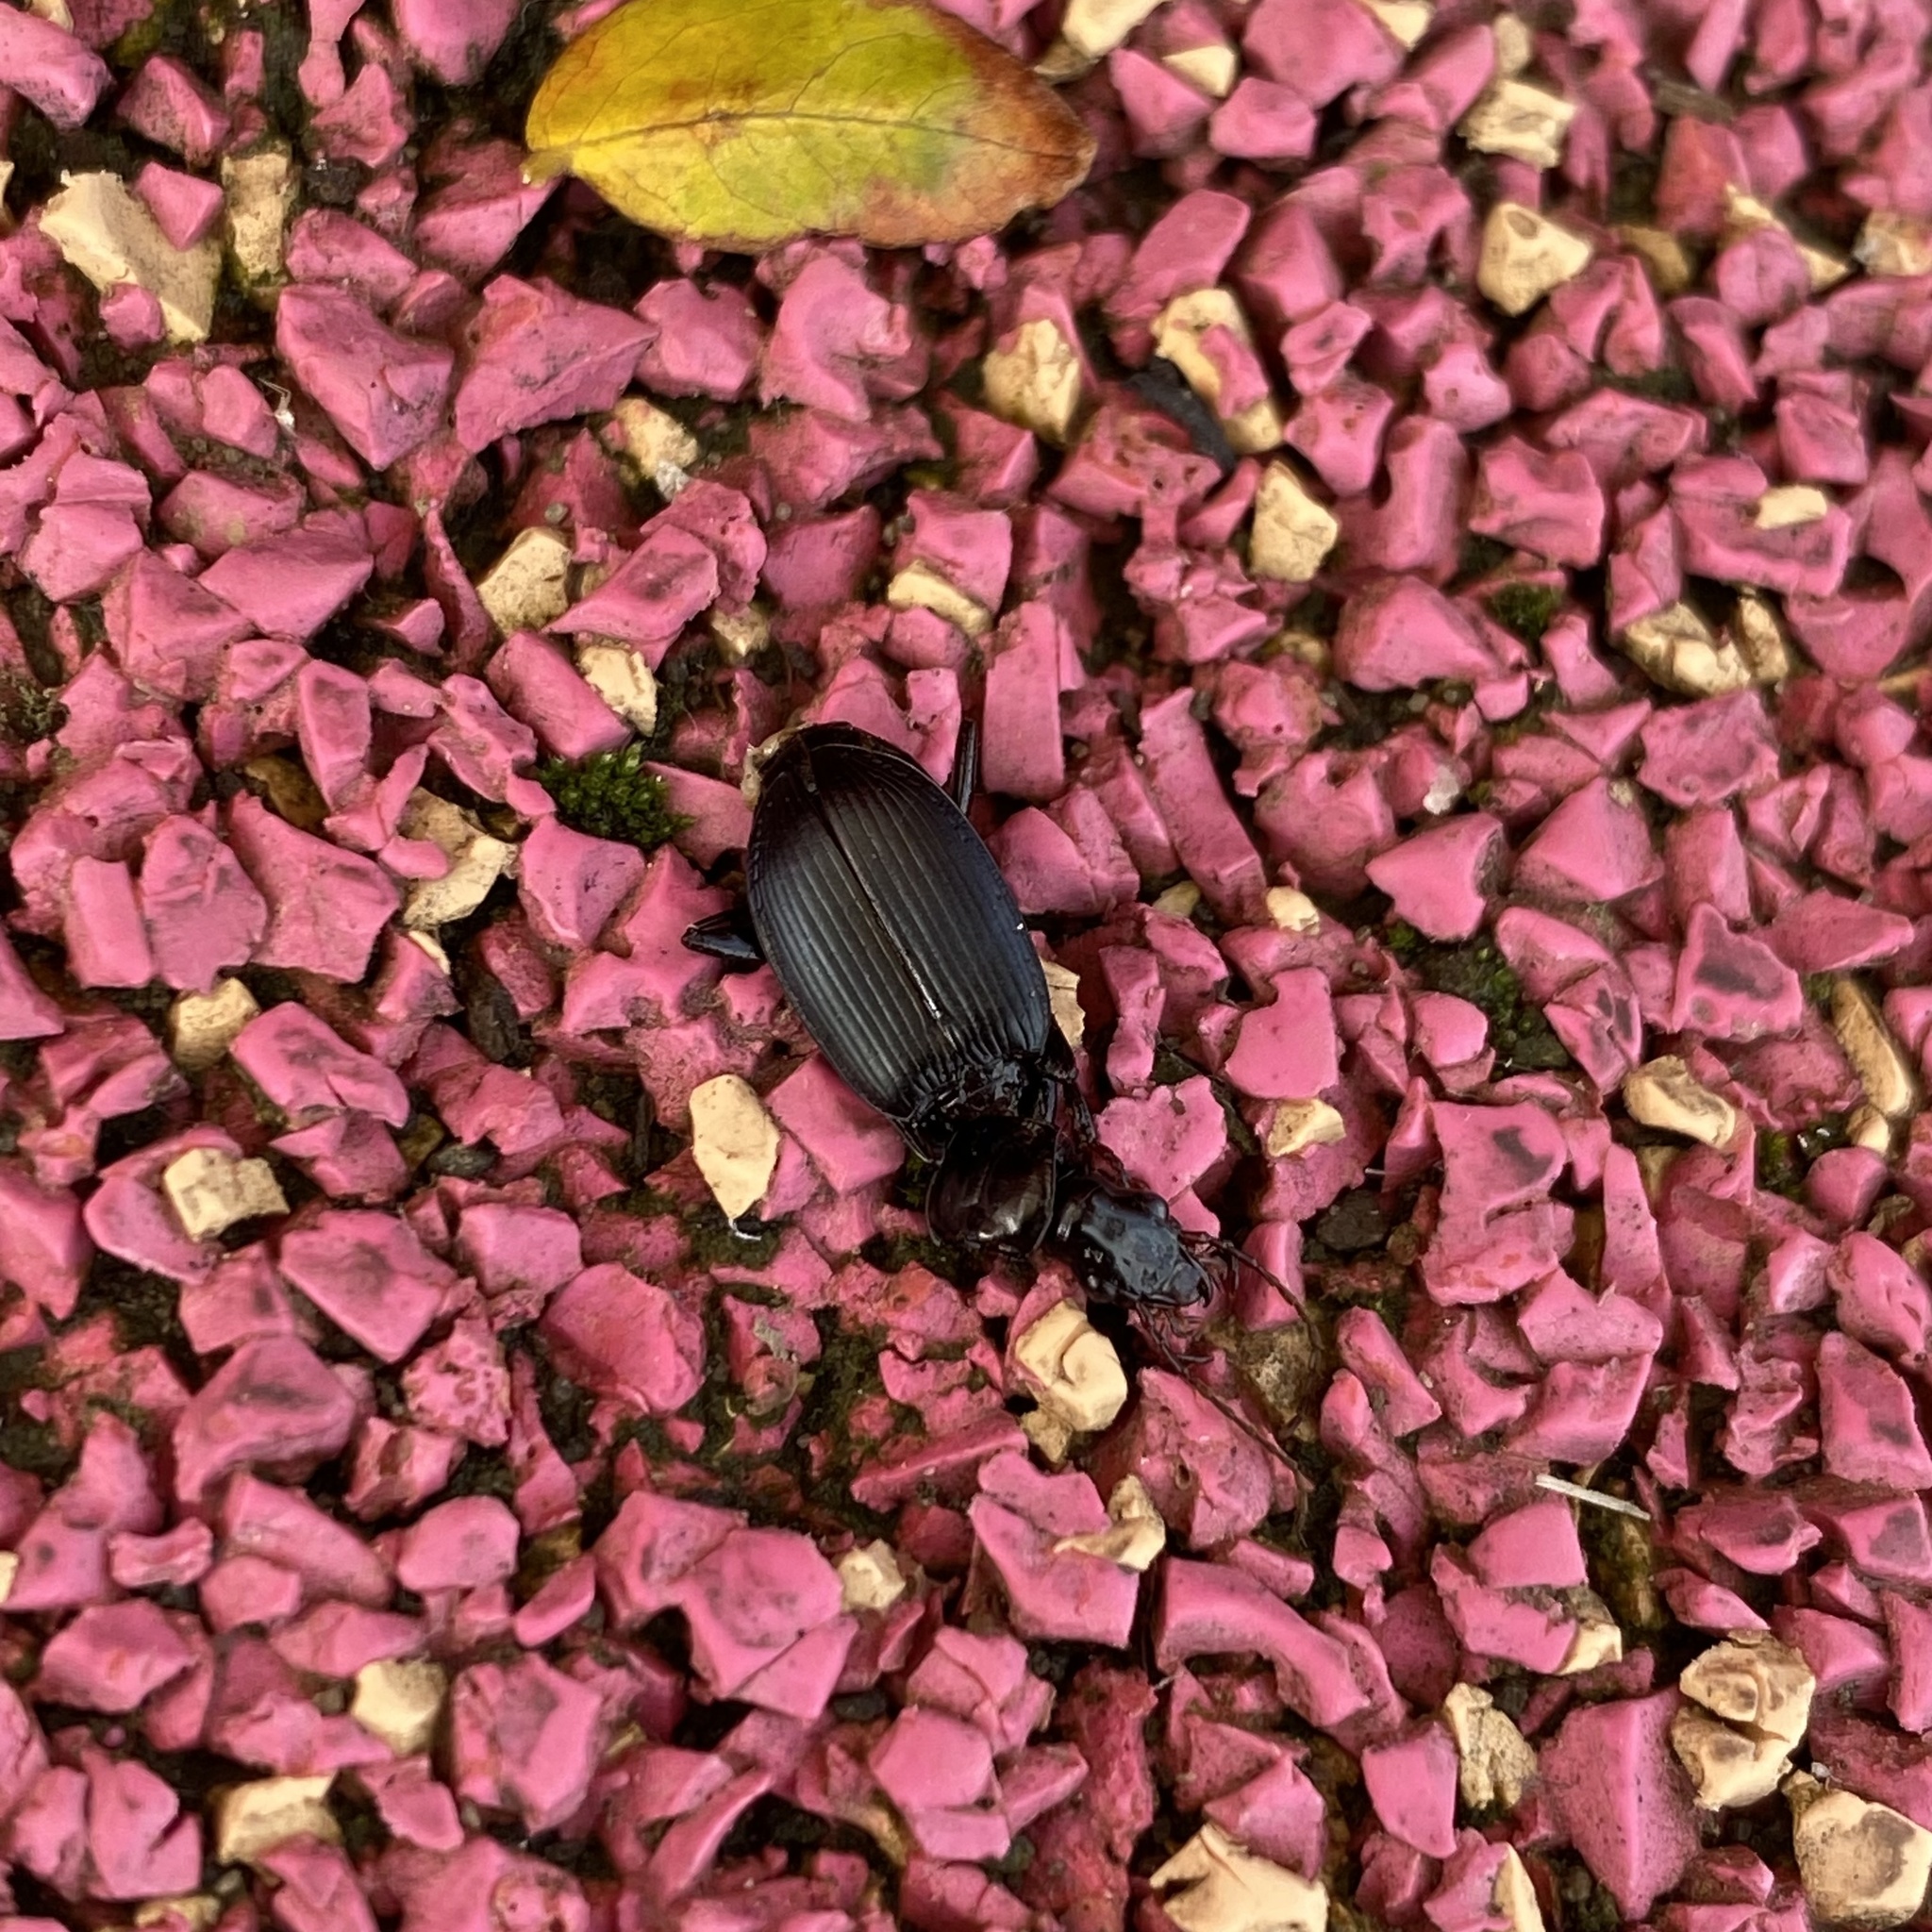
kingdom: Animalia
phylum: Arthropoda
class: Insecta
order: Coleoptera
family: Carabidae
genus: Laemostenus
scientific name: Laemostenus complanatus
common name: Cosmopolitan ground beetle
